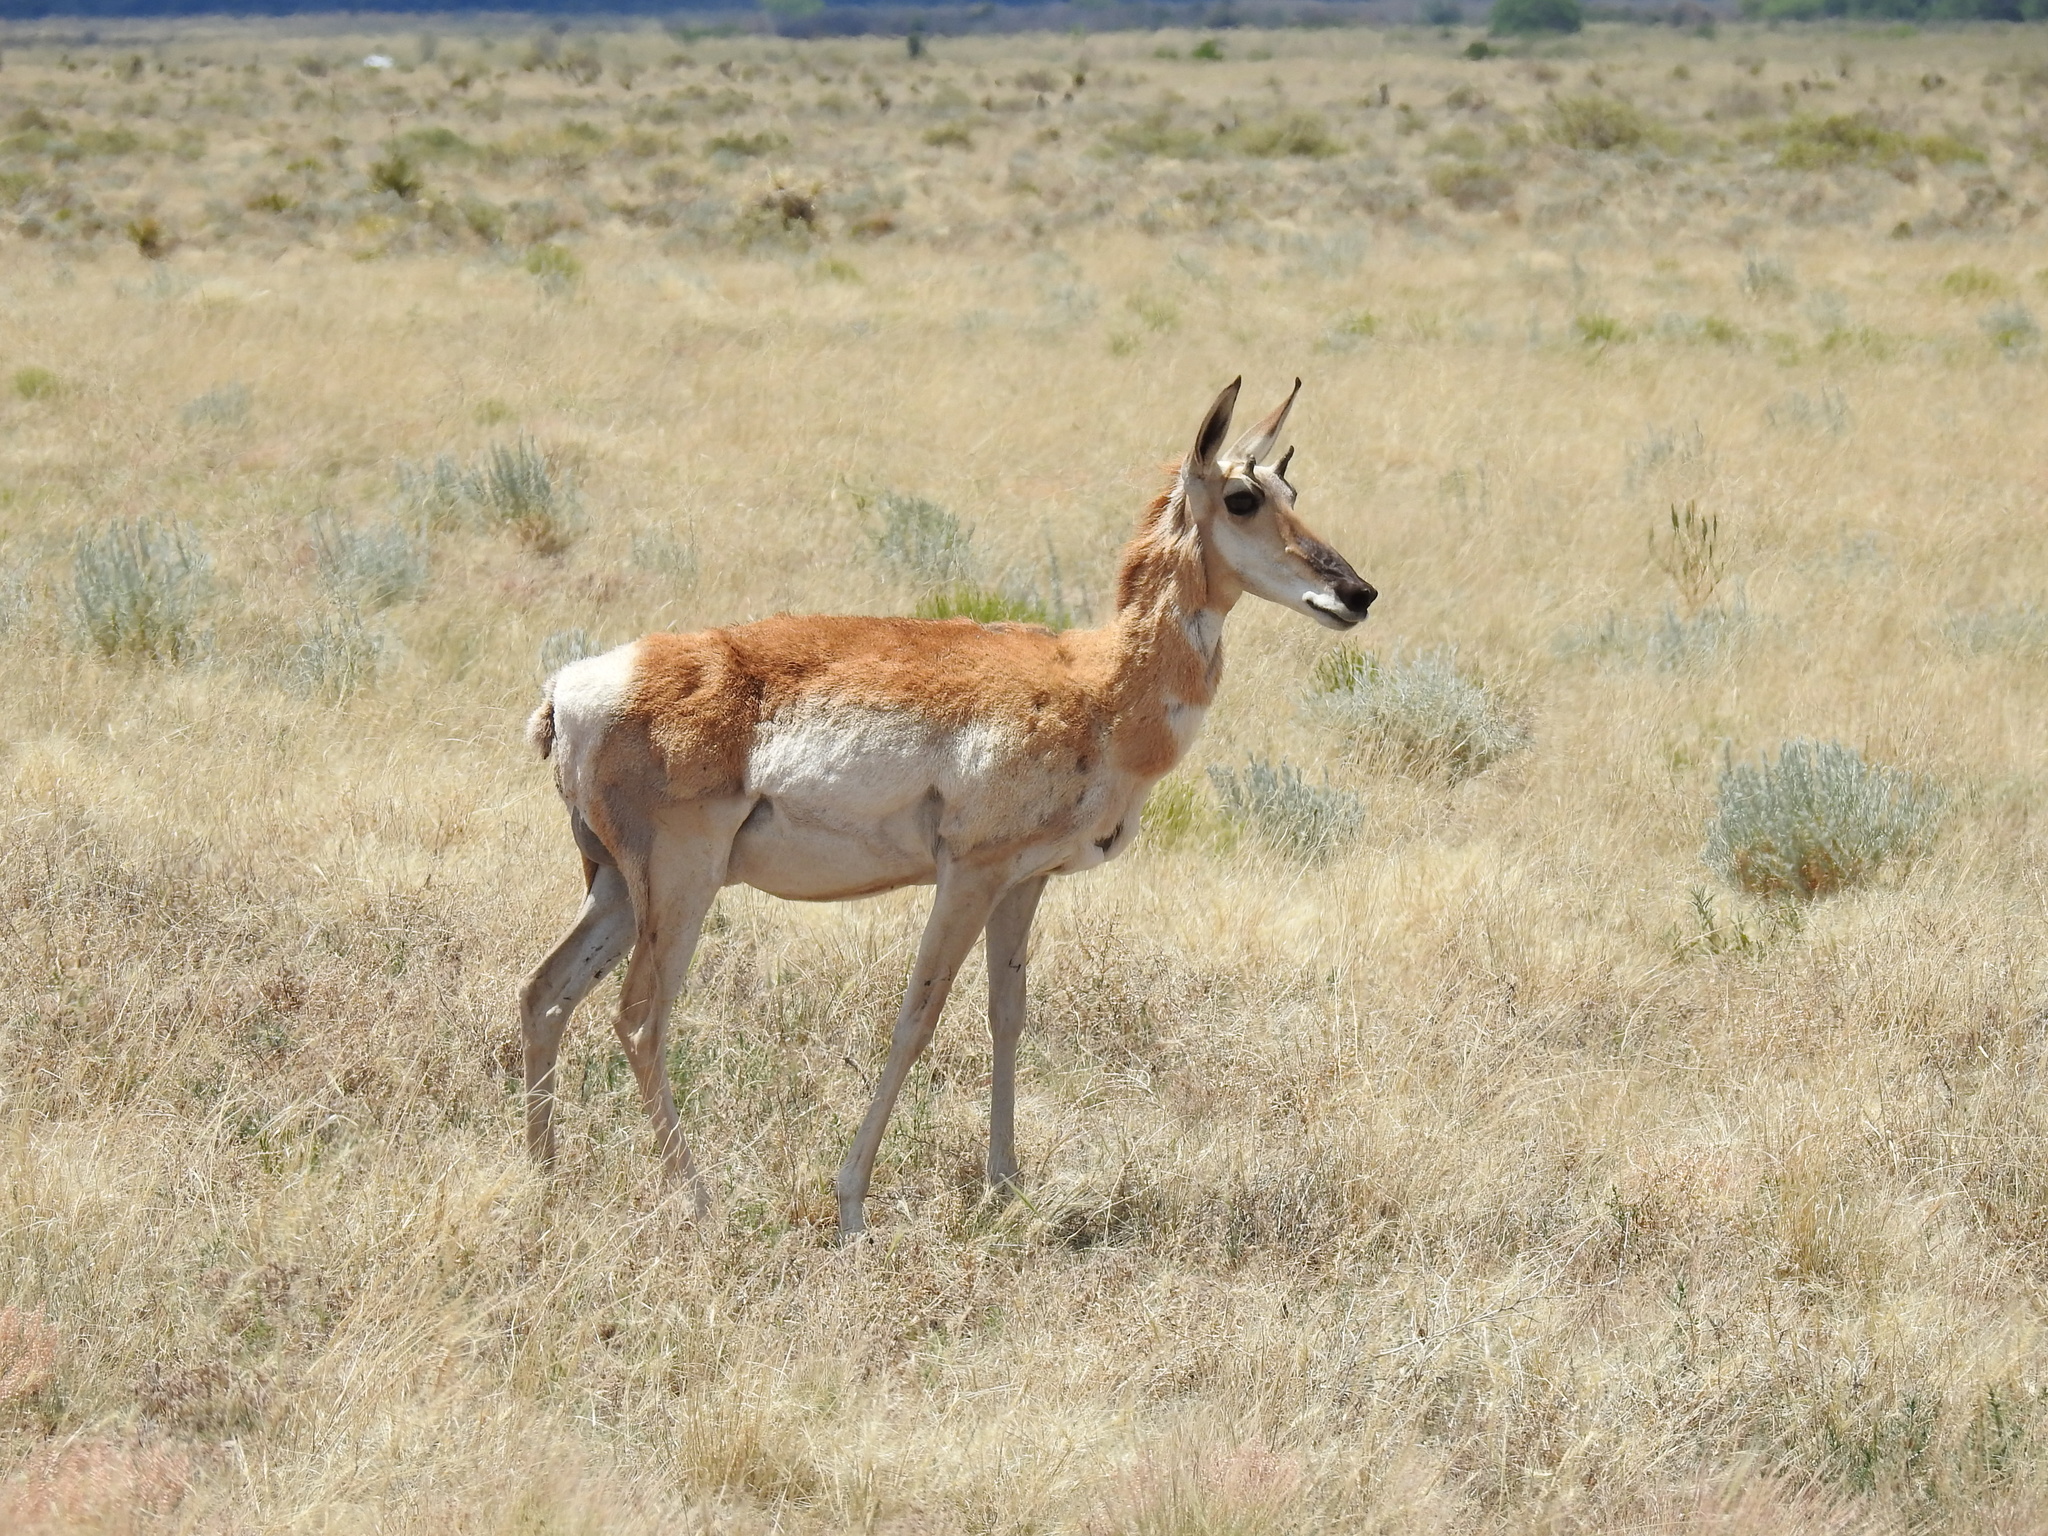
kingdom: Animalia
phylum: Chordata
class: Mammalia
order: Artiodactyla
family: Antilocapridae
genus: Antilocapra
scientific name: Antilocapra americana
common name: Pronghorn
